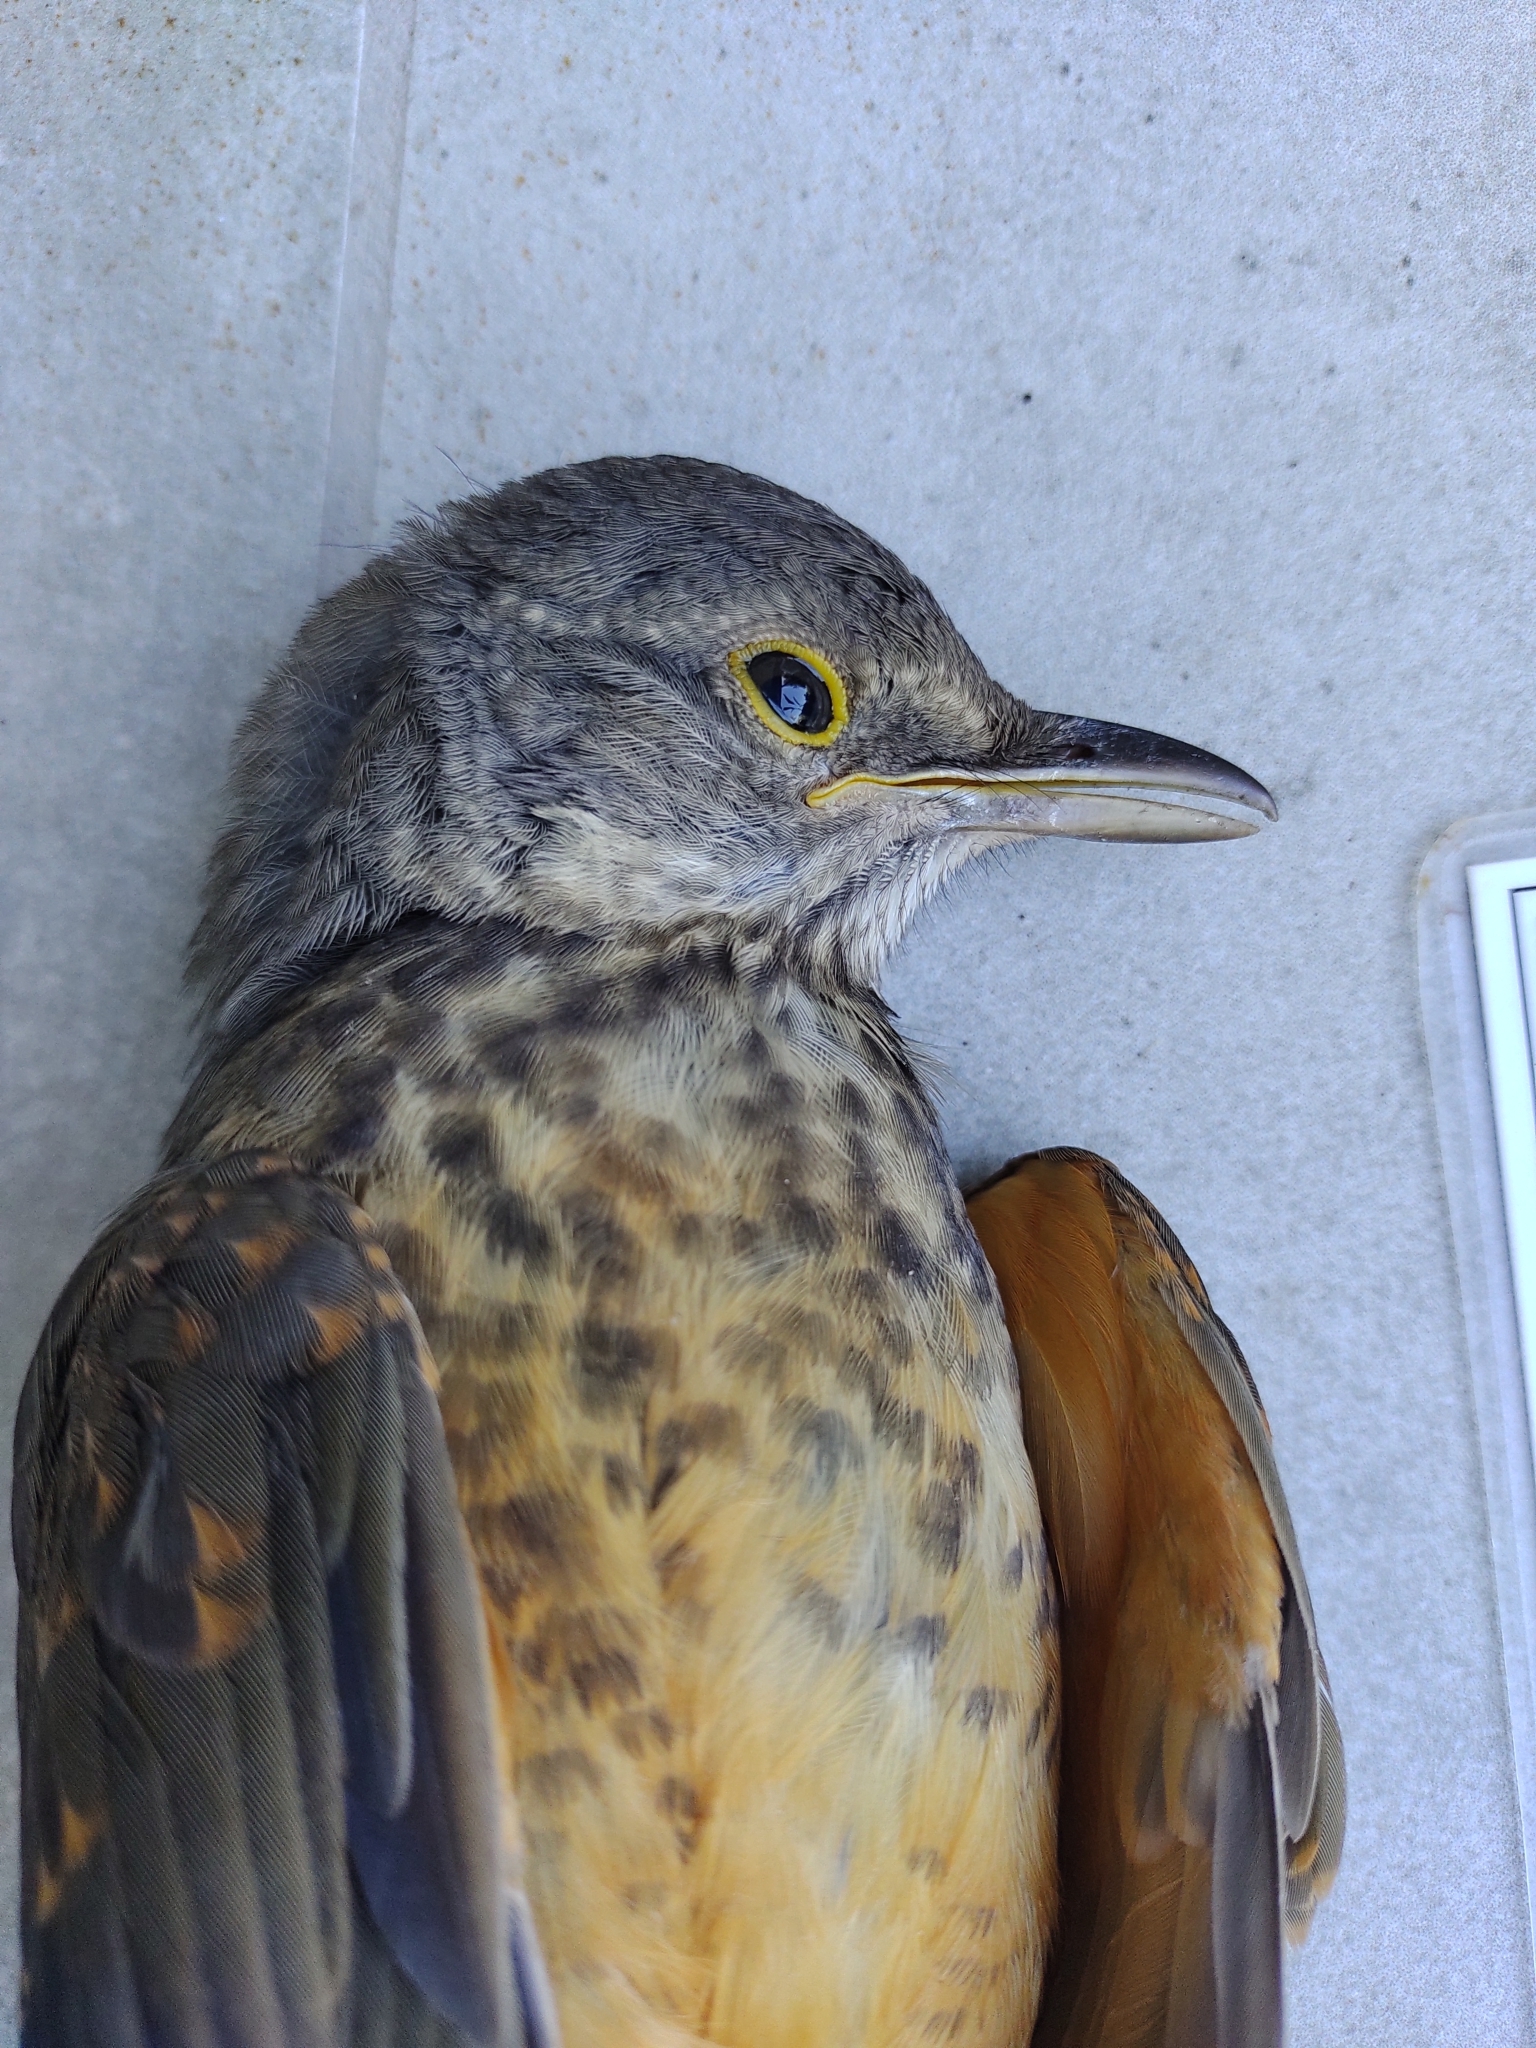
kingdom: Animalia
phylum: Chordata
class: Aves
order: Passeriformes
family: Turdidae
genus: Turdus
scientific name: Turdus rufiventris
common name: Rufous-bellied thrush
